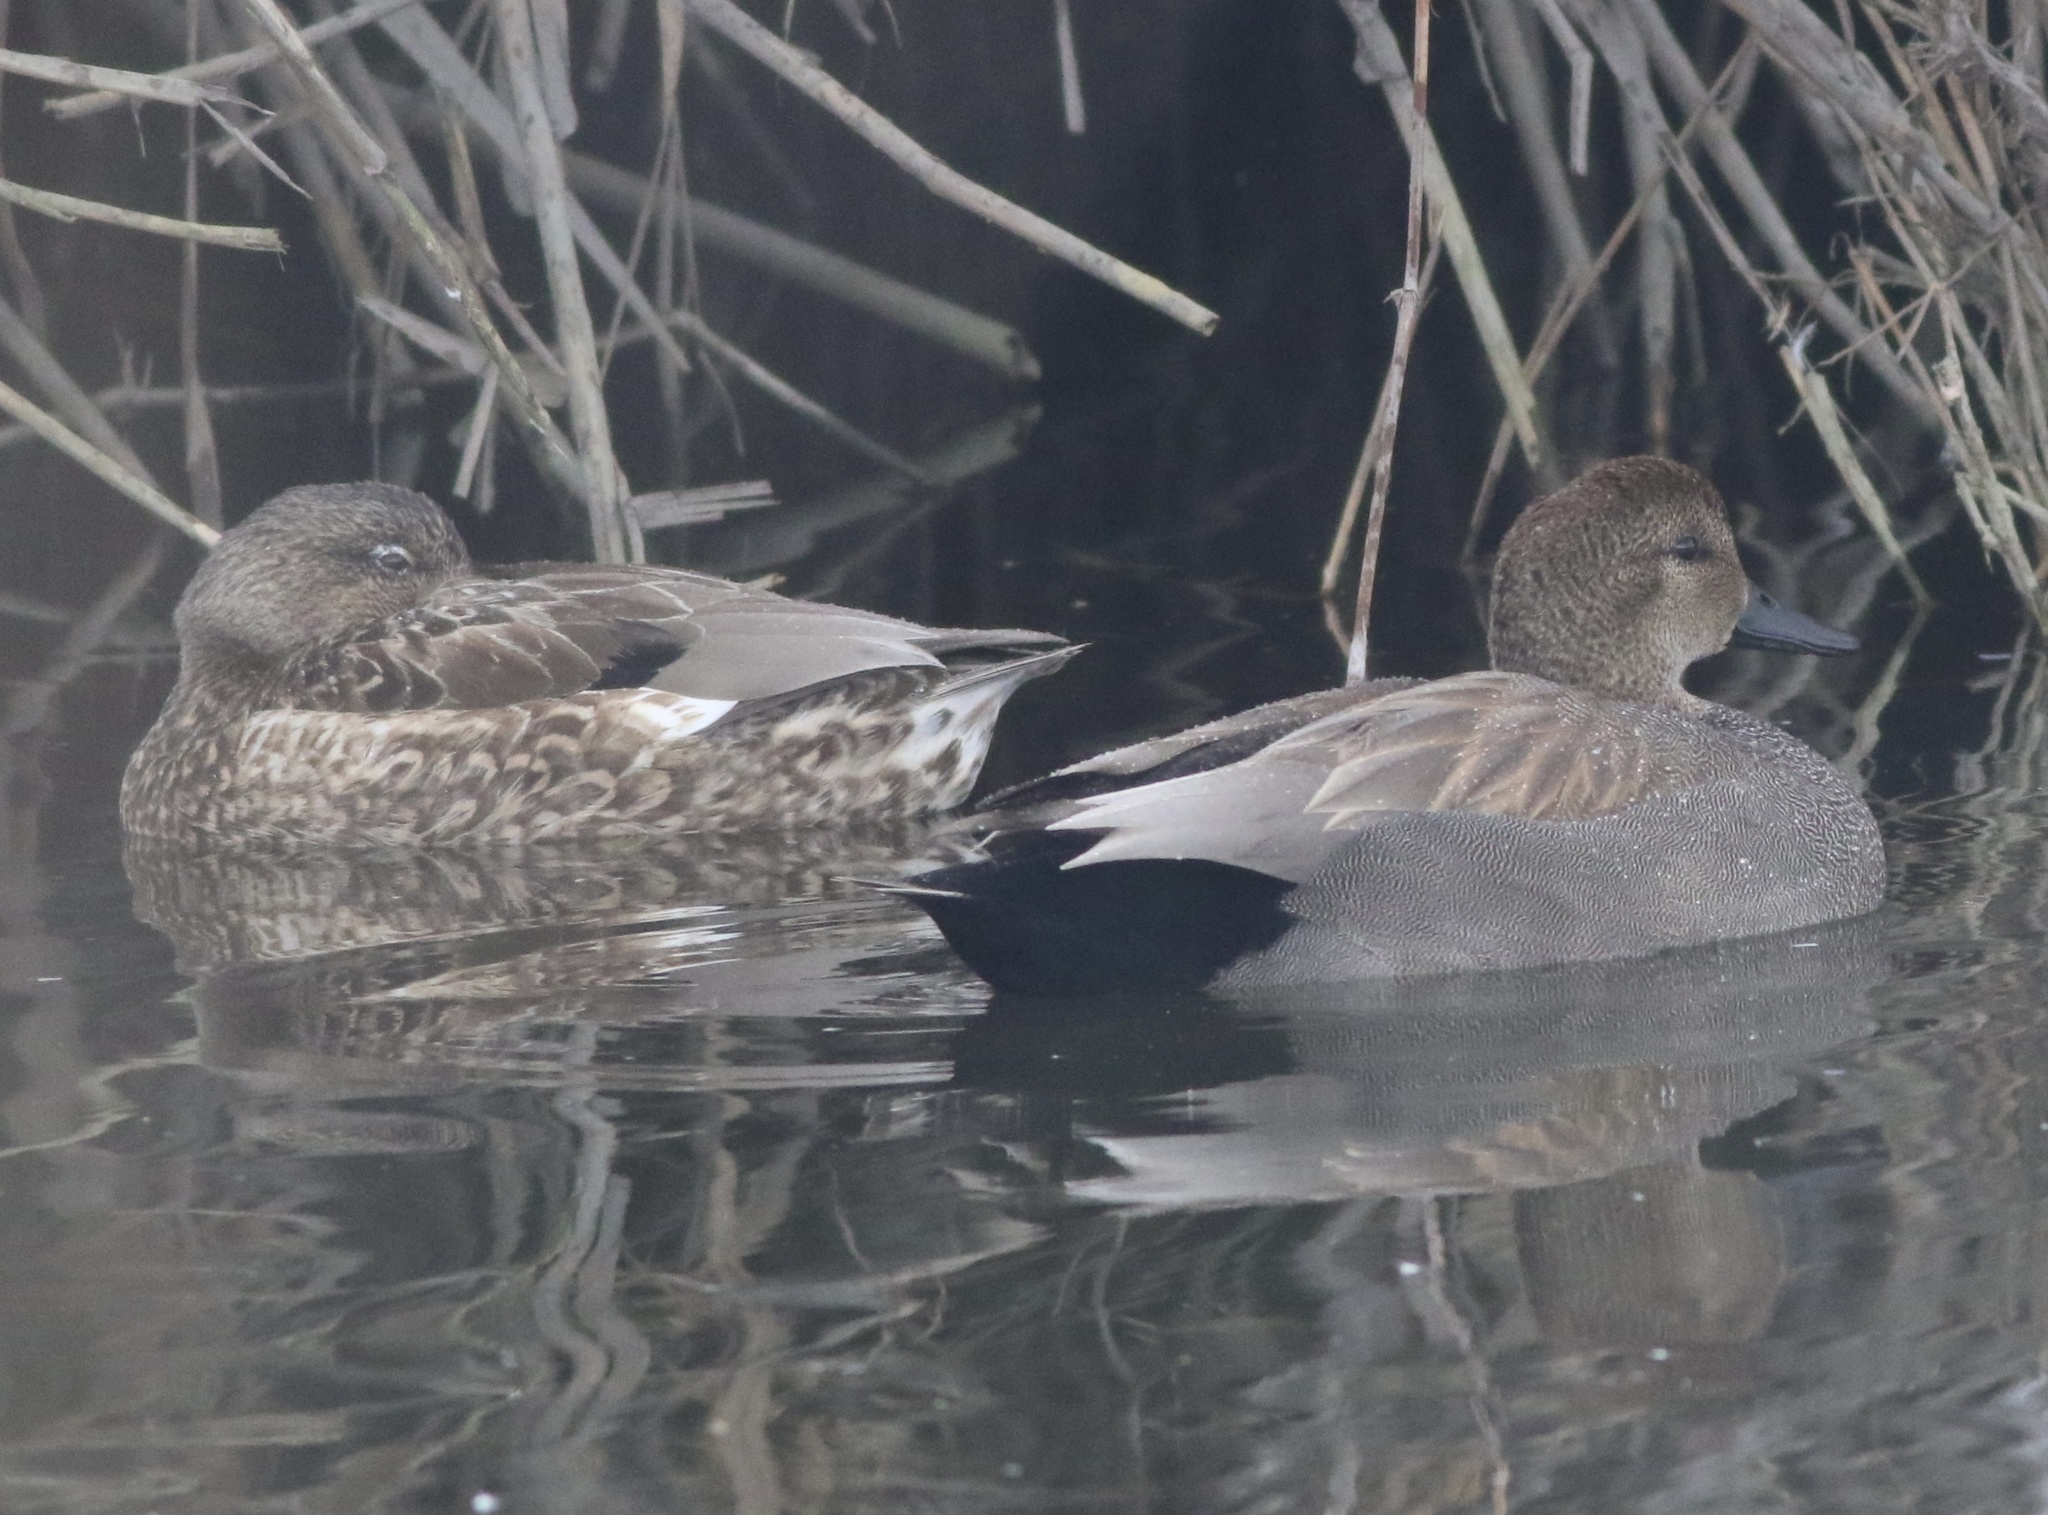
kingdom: Animalia
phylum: Chordata
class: Aves
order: Anseriformes
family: Anatidae
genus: Mareca
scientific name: Mareca strepera
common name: Gadwall
